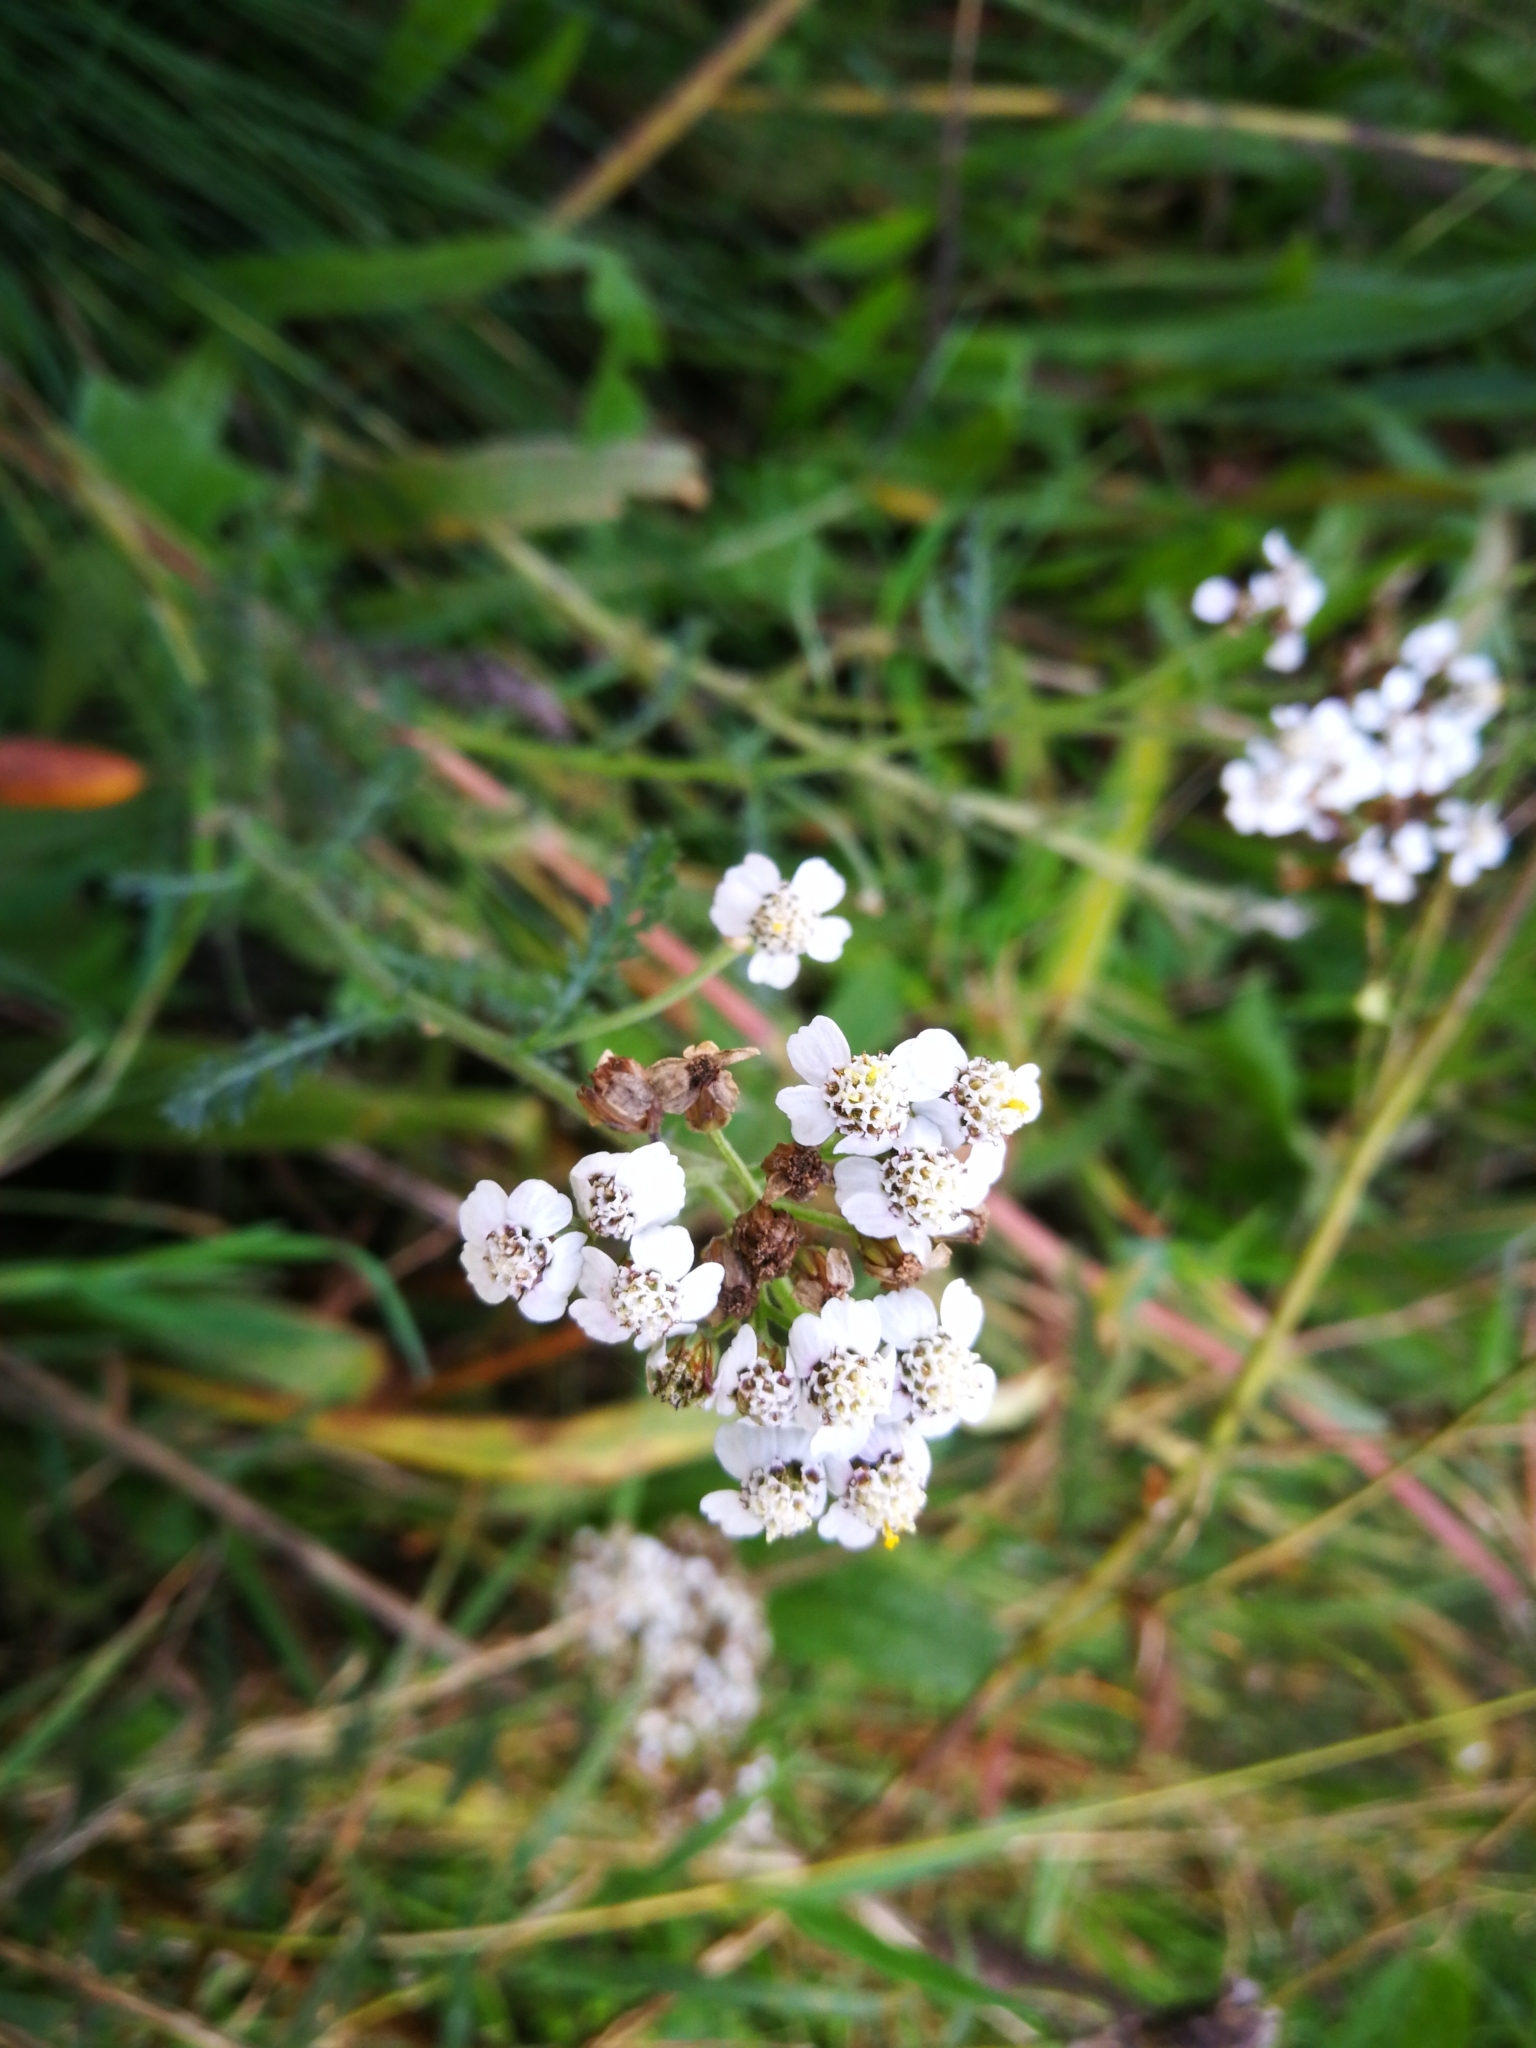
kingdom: Plantae
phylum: Tracheophyta
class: Magnoliopsida
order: Asterales
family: Asteraceae
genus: Achillea
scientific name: Achillea millefolium
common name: Yarrow
